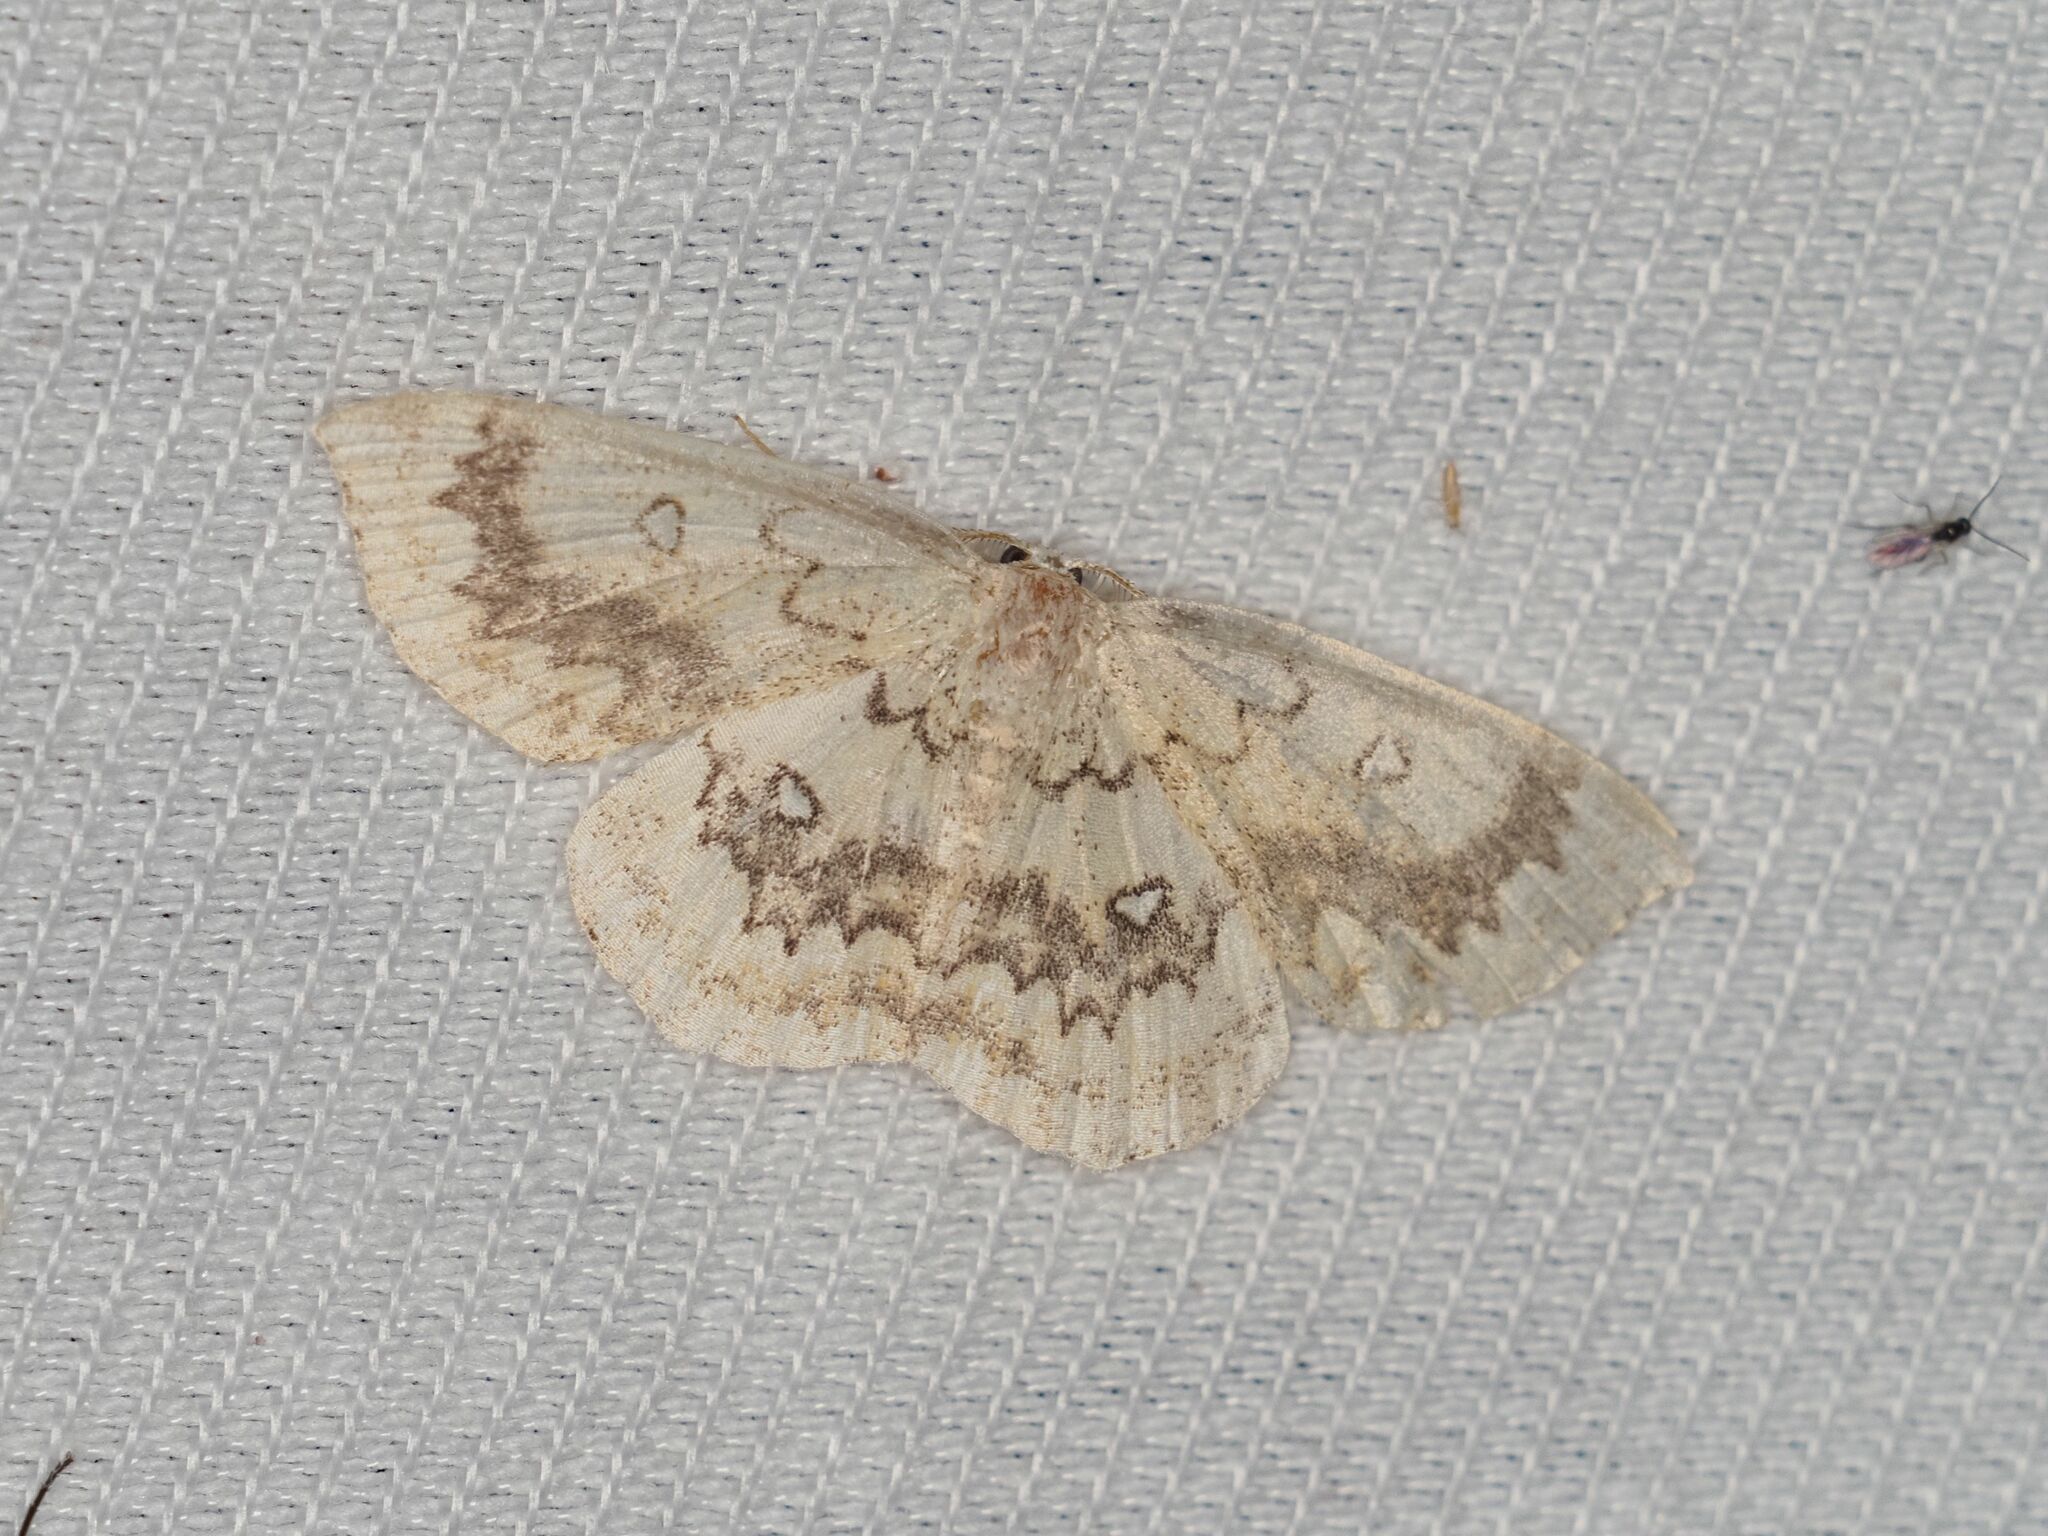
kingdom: Animalia
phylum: Arthropoda
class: Insecta
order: Lepidoptera
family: Geometridae
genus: Cyclophora
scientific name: Cyclophora annularia
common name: Mocha
